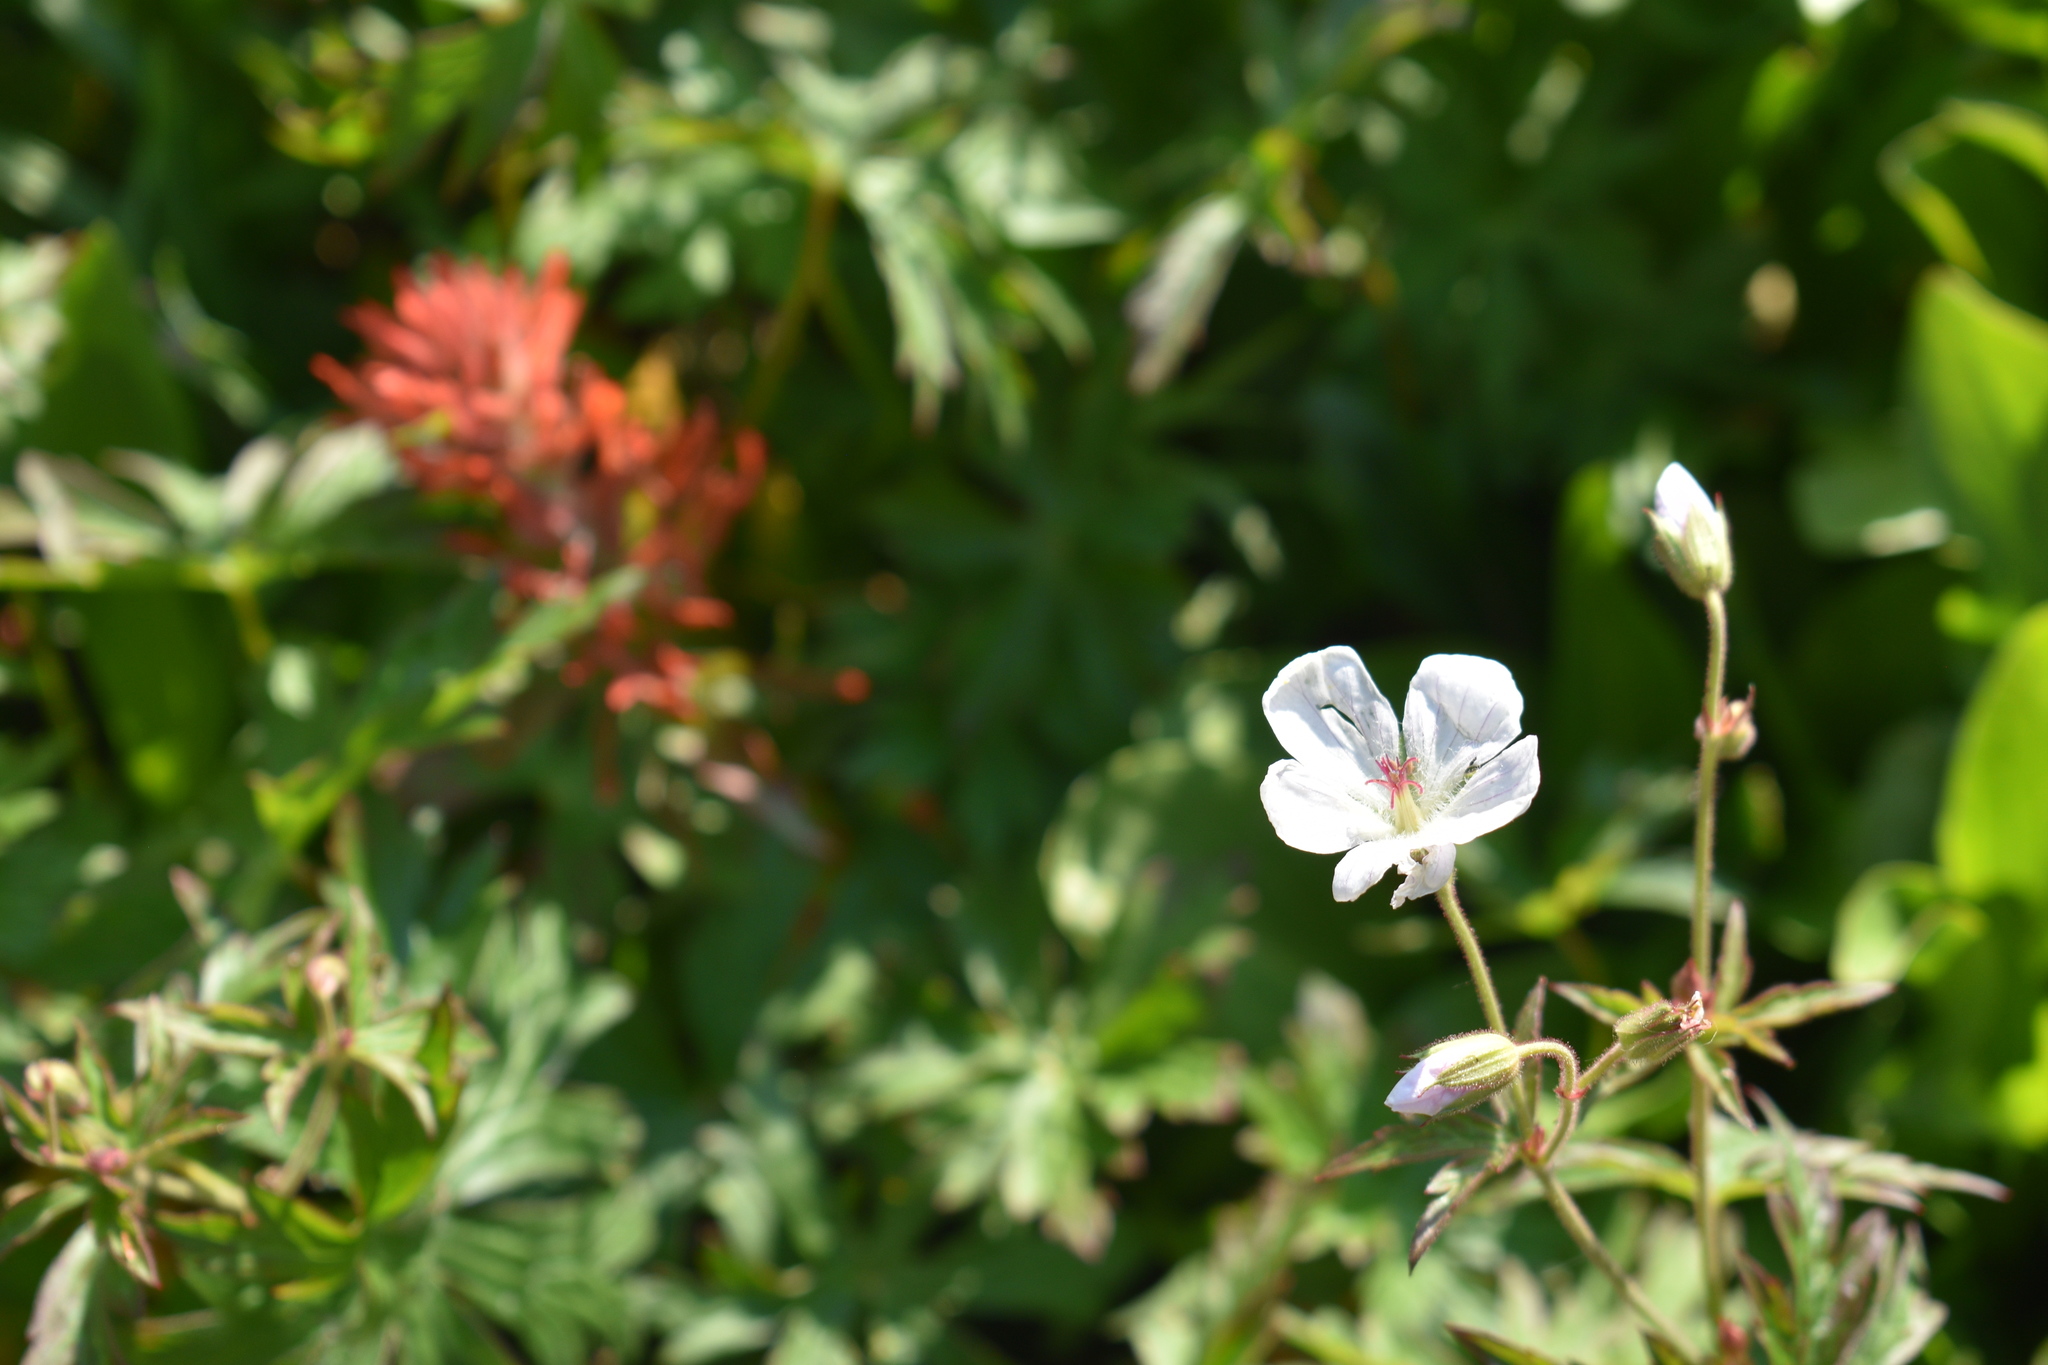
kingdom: Plantae
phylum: Tracheophyta
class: Magnoliopsida
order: Geraniales
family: Geraniaceae
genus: Geranium
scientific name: Geranium richardsonii
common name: Richardson's crane's-bill
